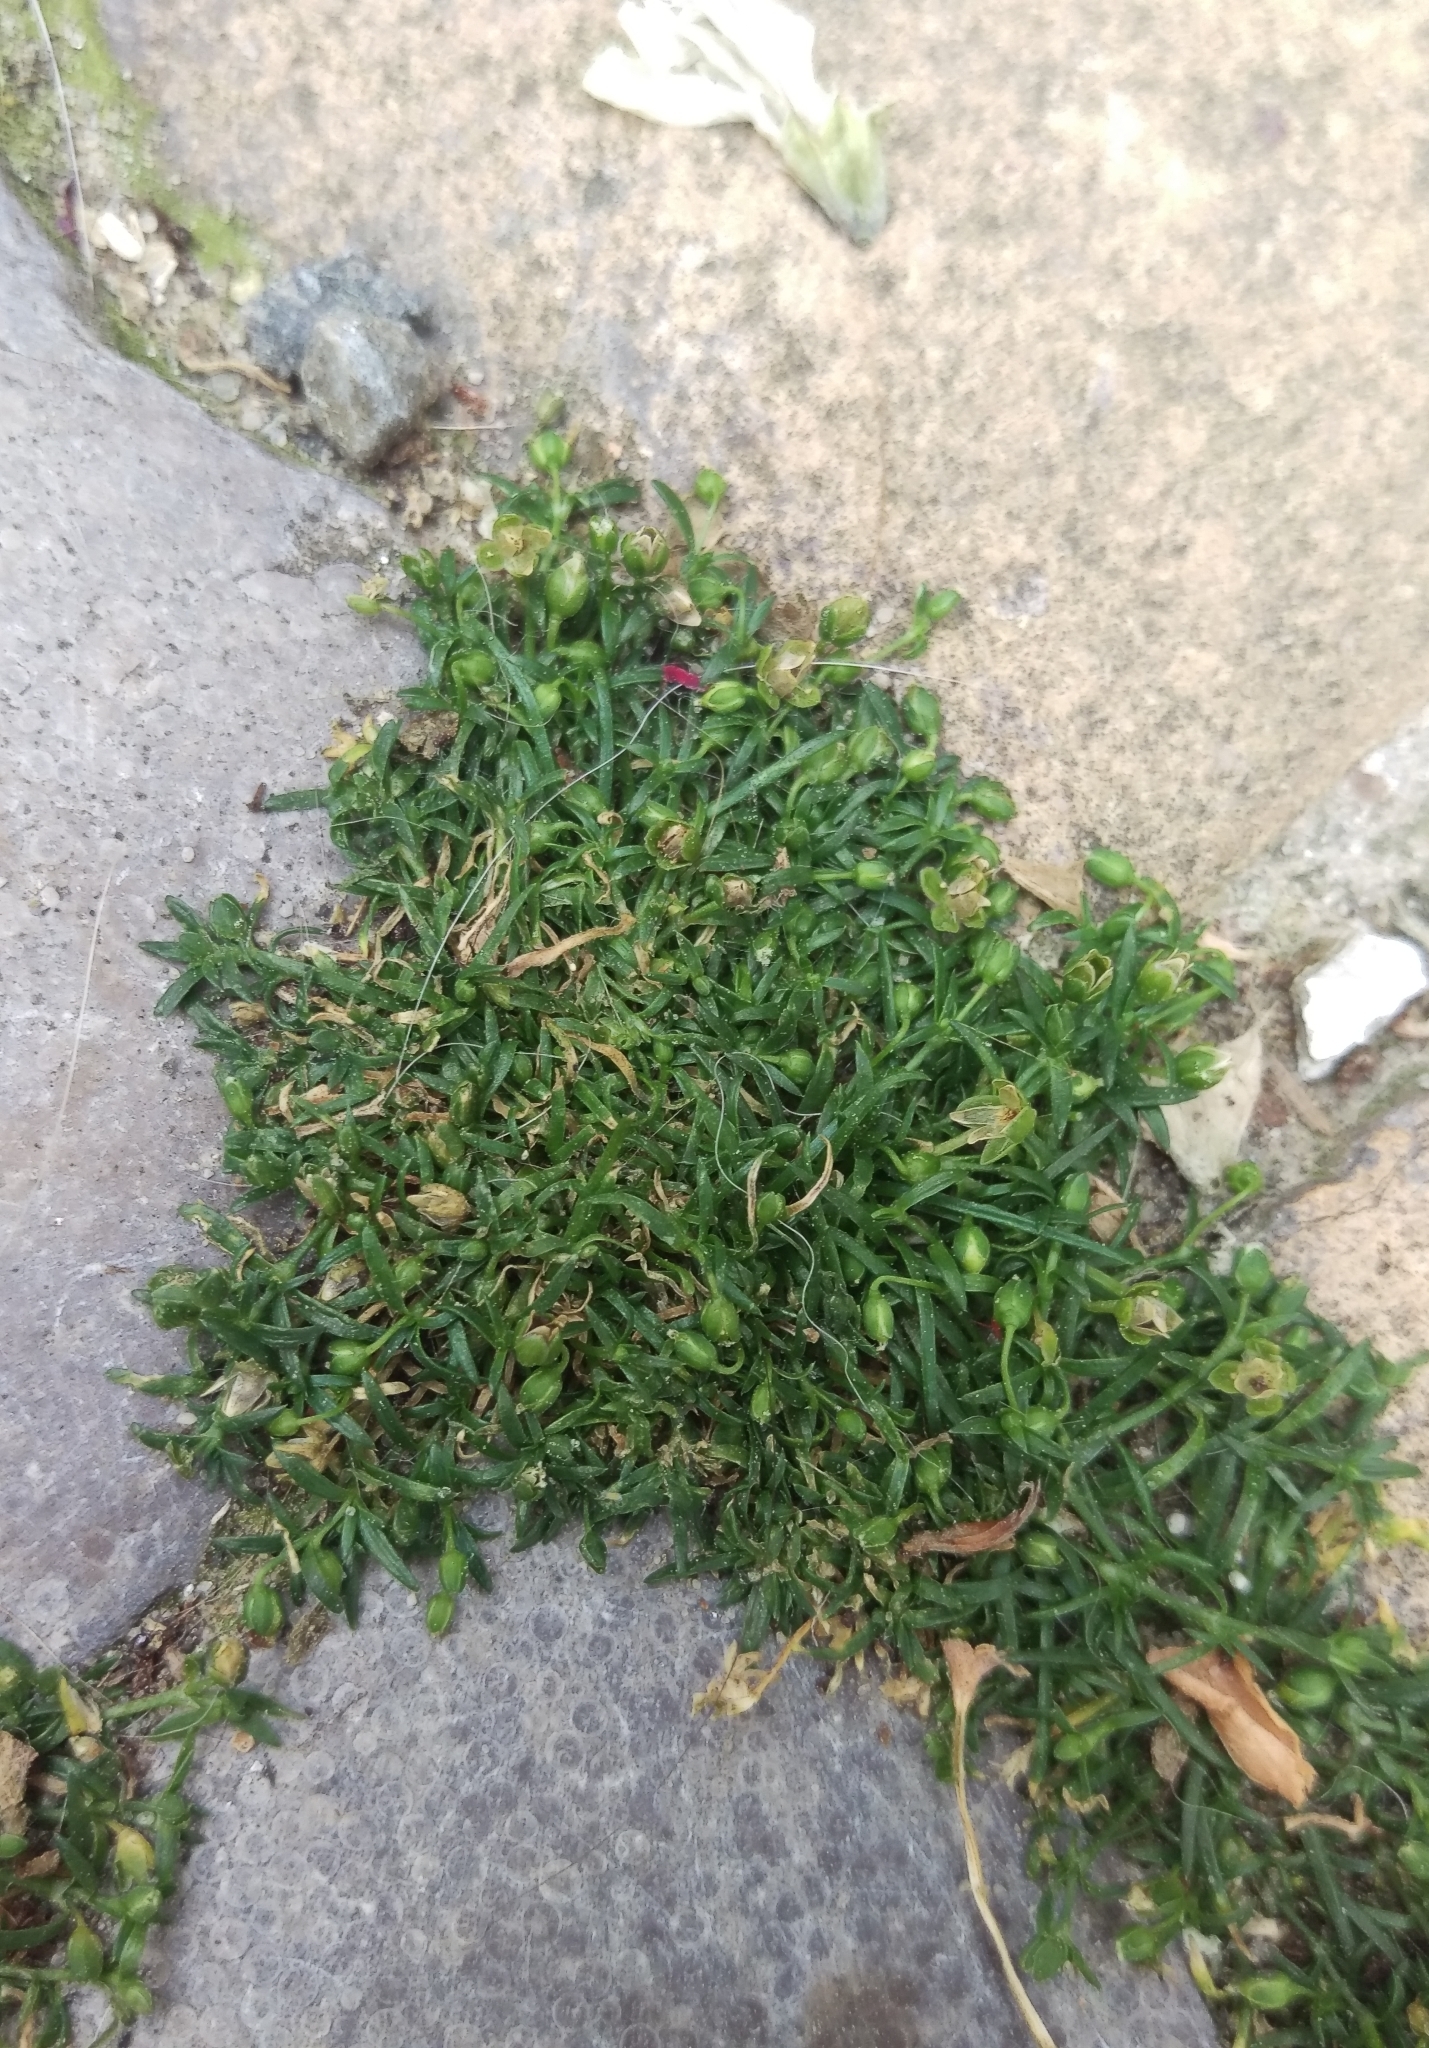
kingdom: Plantae
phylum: Tracheophyta
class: Magnoliopsida
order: Caryophyllales
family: Caryophyllaceae
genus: Sagina
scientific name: Sagina procumbens
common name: Procumbent pearlwort
